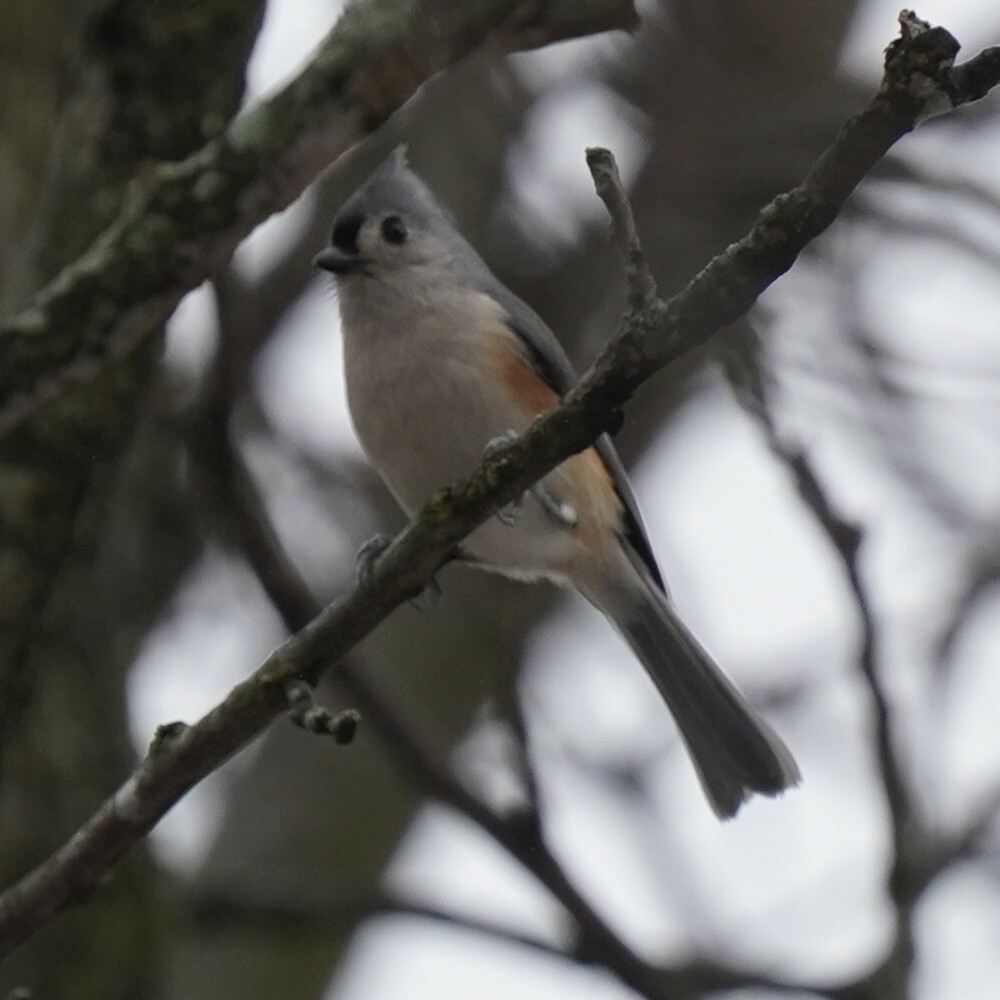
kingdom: Animalia
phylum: Chordata
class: Aves
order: Passeriformes
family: Paridae
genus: Baeolophus
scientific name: Baeolophus bicolor
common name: Tufted titmouse
